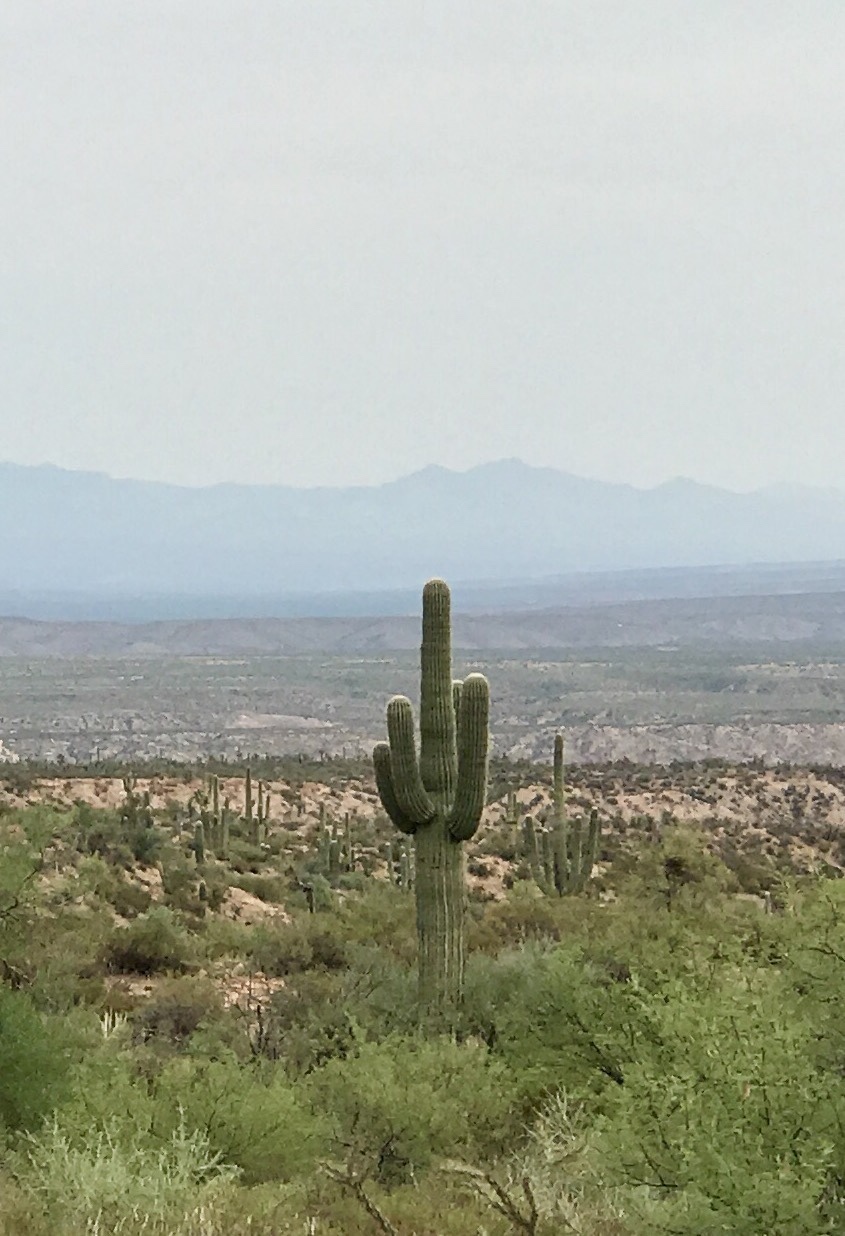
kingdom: Plantae
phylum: Tracheophyta
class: Magnoliopsida
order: Caryophyllales
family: Cactaceae
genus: Carnegiea
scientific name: Carnegiea gigantea
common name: Saguaro
